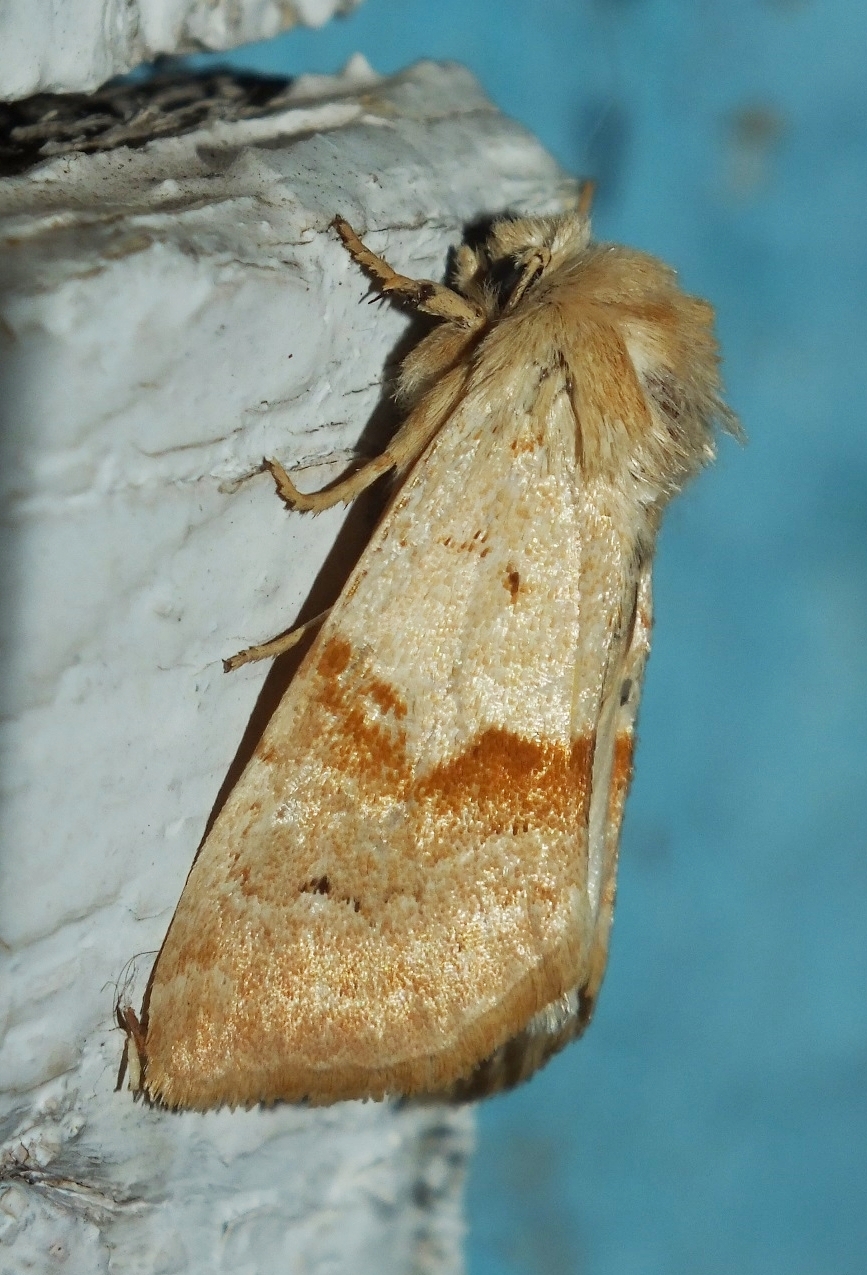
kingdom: Animalia
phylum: Arthropoda
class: Insecta
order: Lepidoptera
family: Noctuidae
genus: Mycteroplus
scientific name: Mycteroplus puniceago
